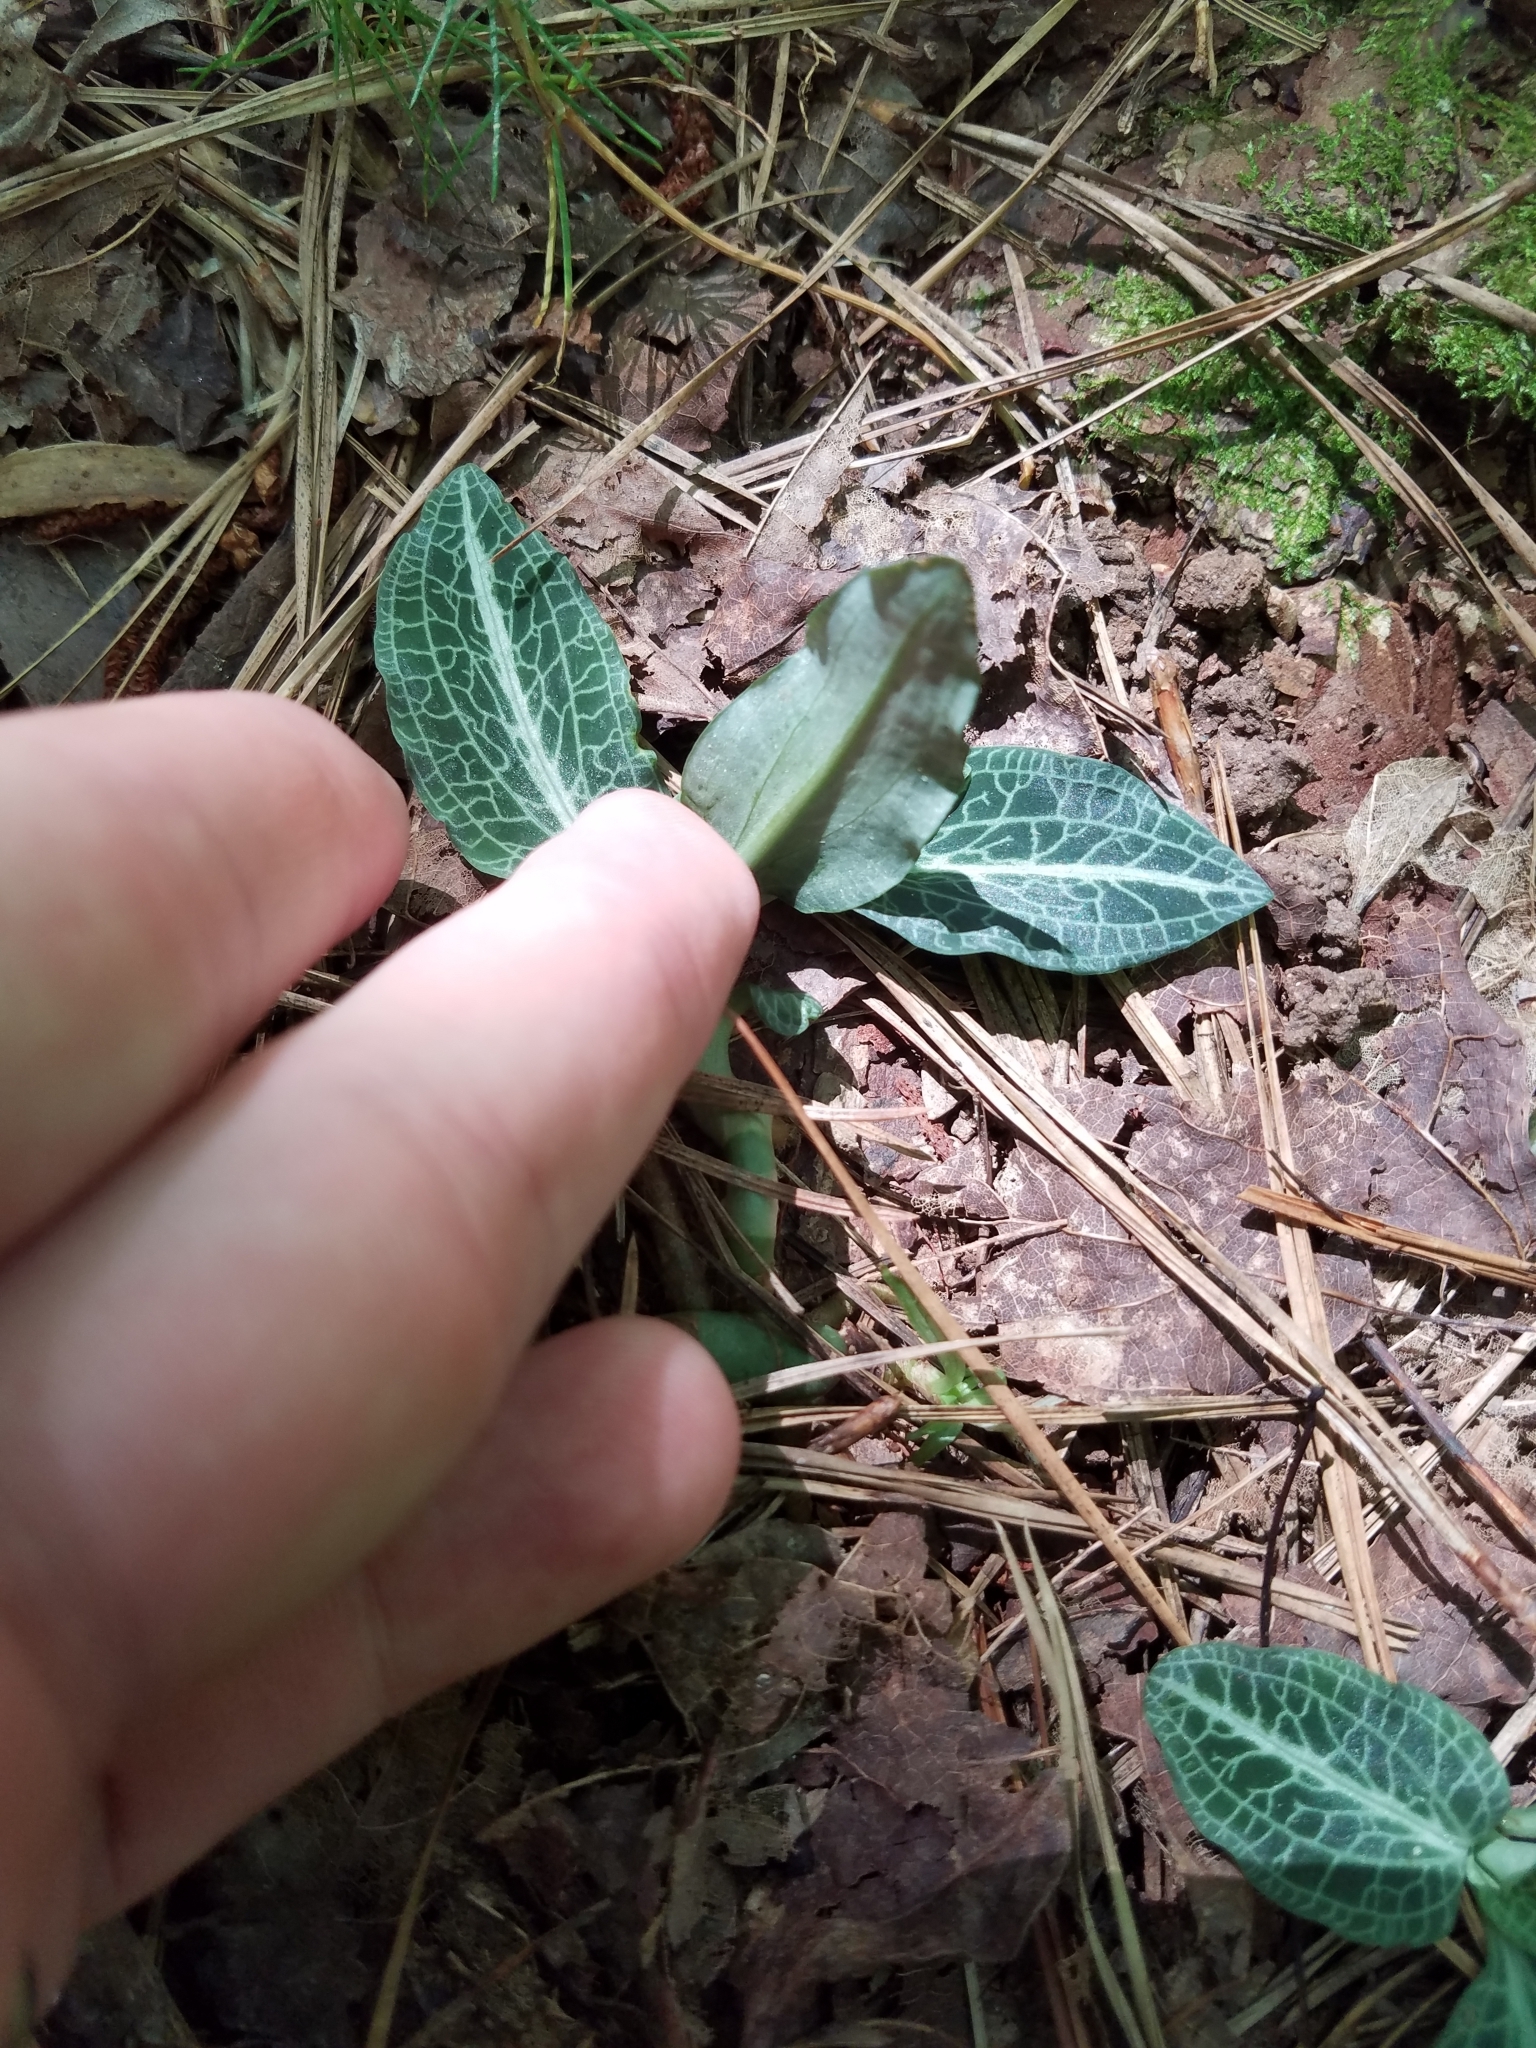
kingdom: Plantae
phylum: Tracheophyta
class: Liliopsida
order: Asparagales
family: Orchidaceae
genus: Goodyera
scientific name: Goodyera pubescens
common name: Downy rattlesnake-plantain
